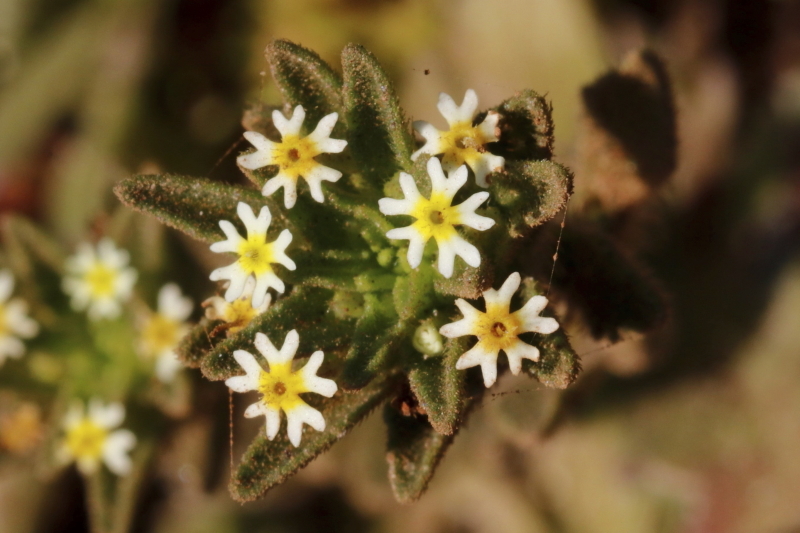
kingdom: Plantae
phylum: Tracheophyta
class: Magnoliopsida
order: Lamiales
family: Scrophulariaceae
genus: Zaluzianskya
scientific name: Zaluzianskya parviflora
